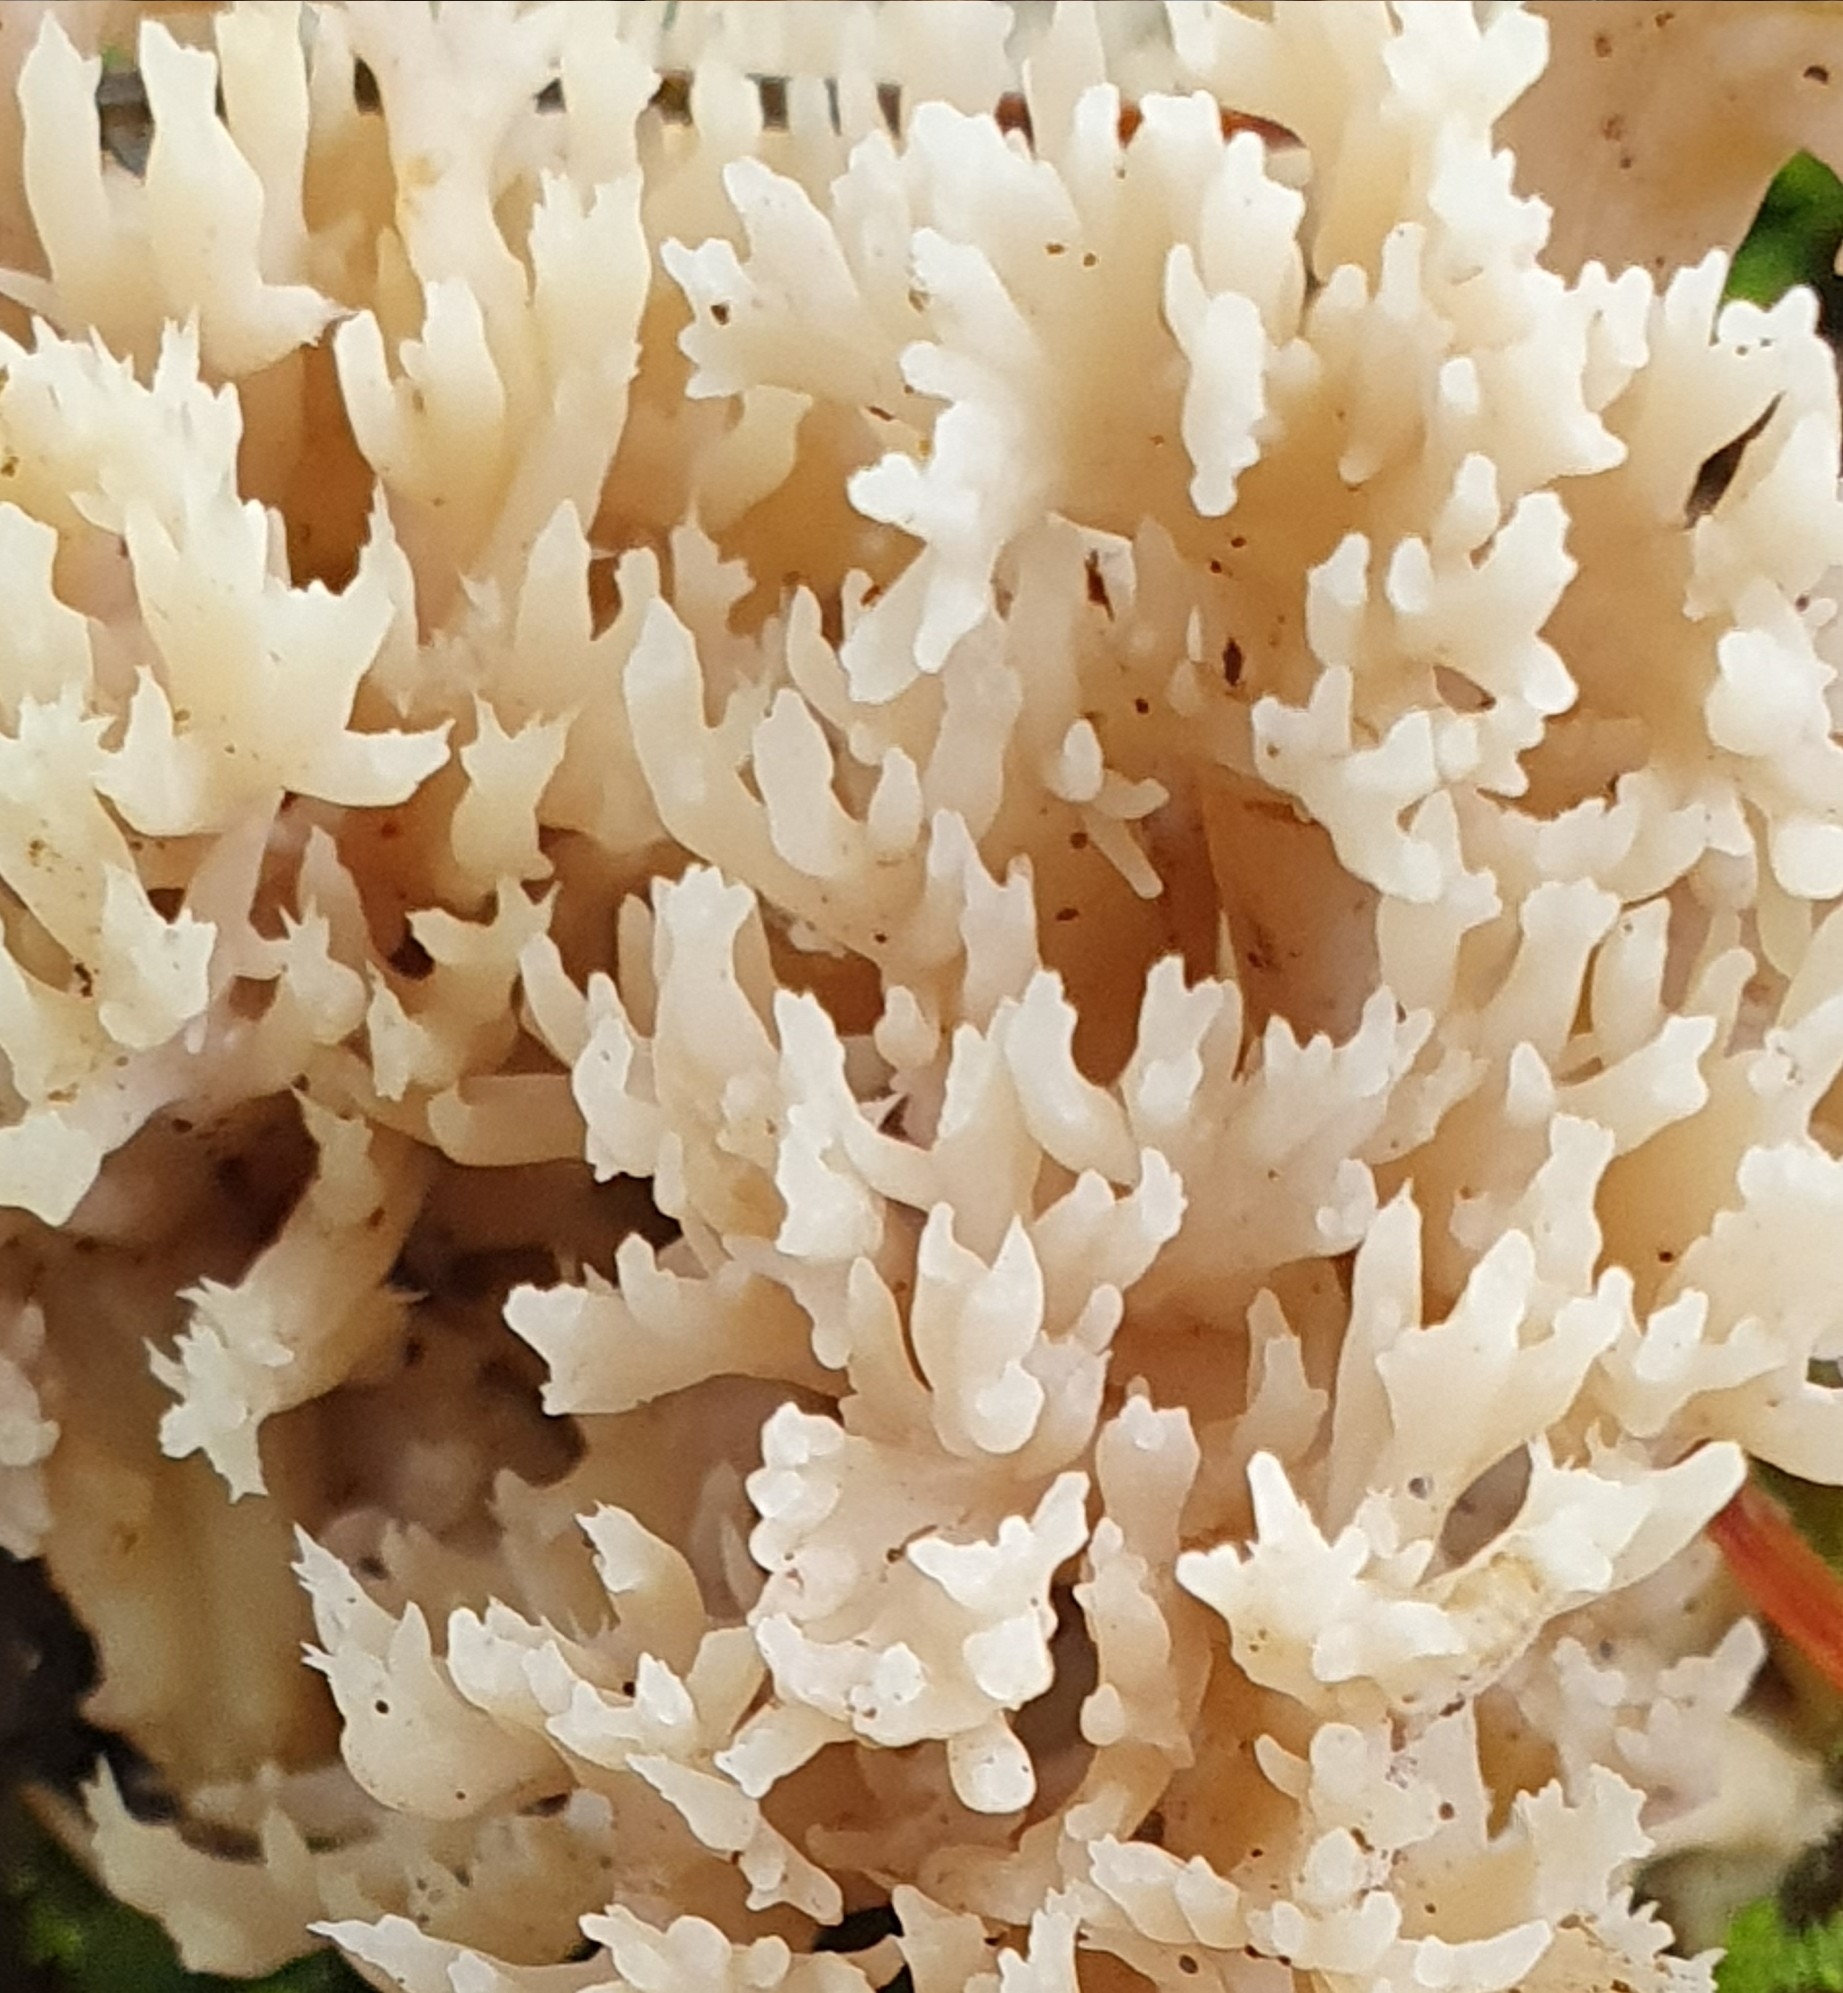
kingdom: Fungi
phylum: Basidiomycota
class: Agaricomycetes
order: Cantharellales
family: Hydnaceae
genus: Clavulina
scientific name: Clavulina coralloides
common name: Crested coral
